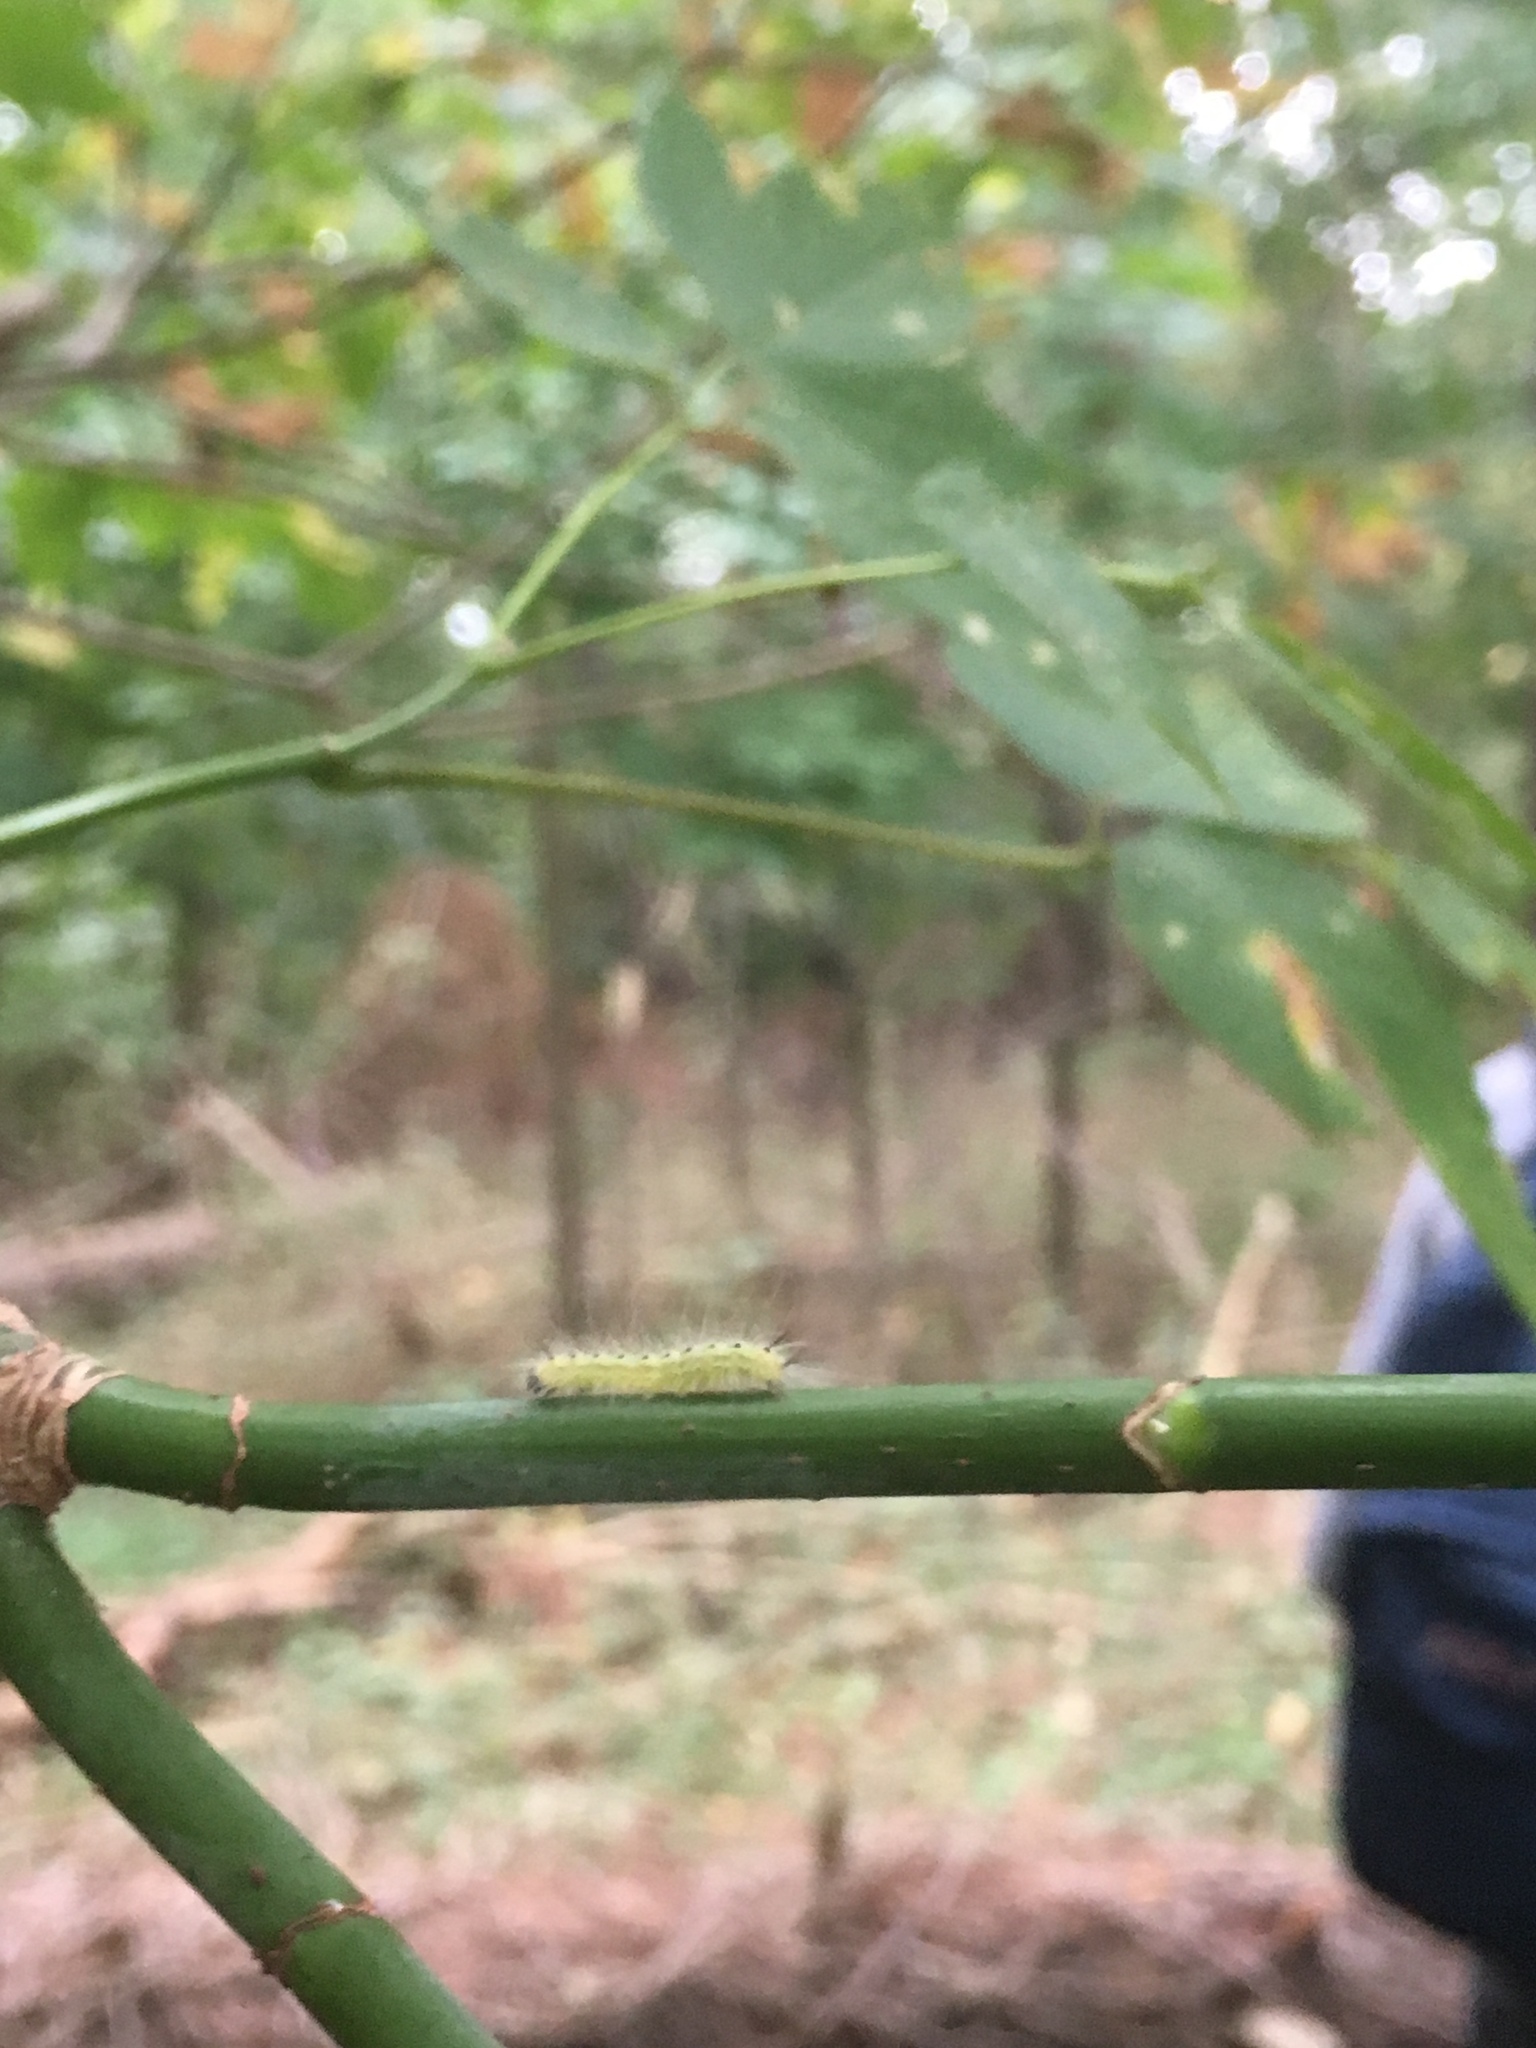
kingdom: Animalia
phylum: Arthropoda
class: Insecta
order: Lepidoptera
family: Erebidae
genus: Hyphantria
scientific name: Hyphantria cunea
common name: American white moth
